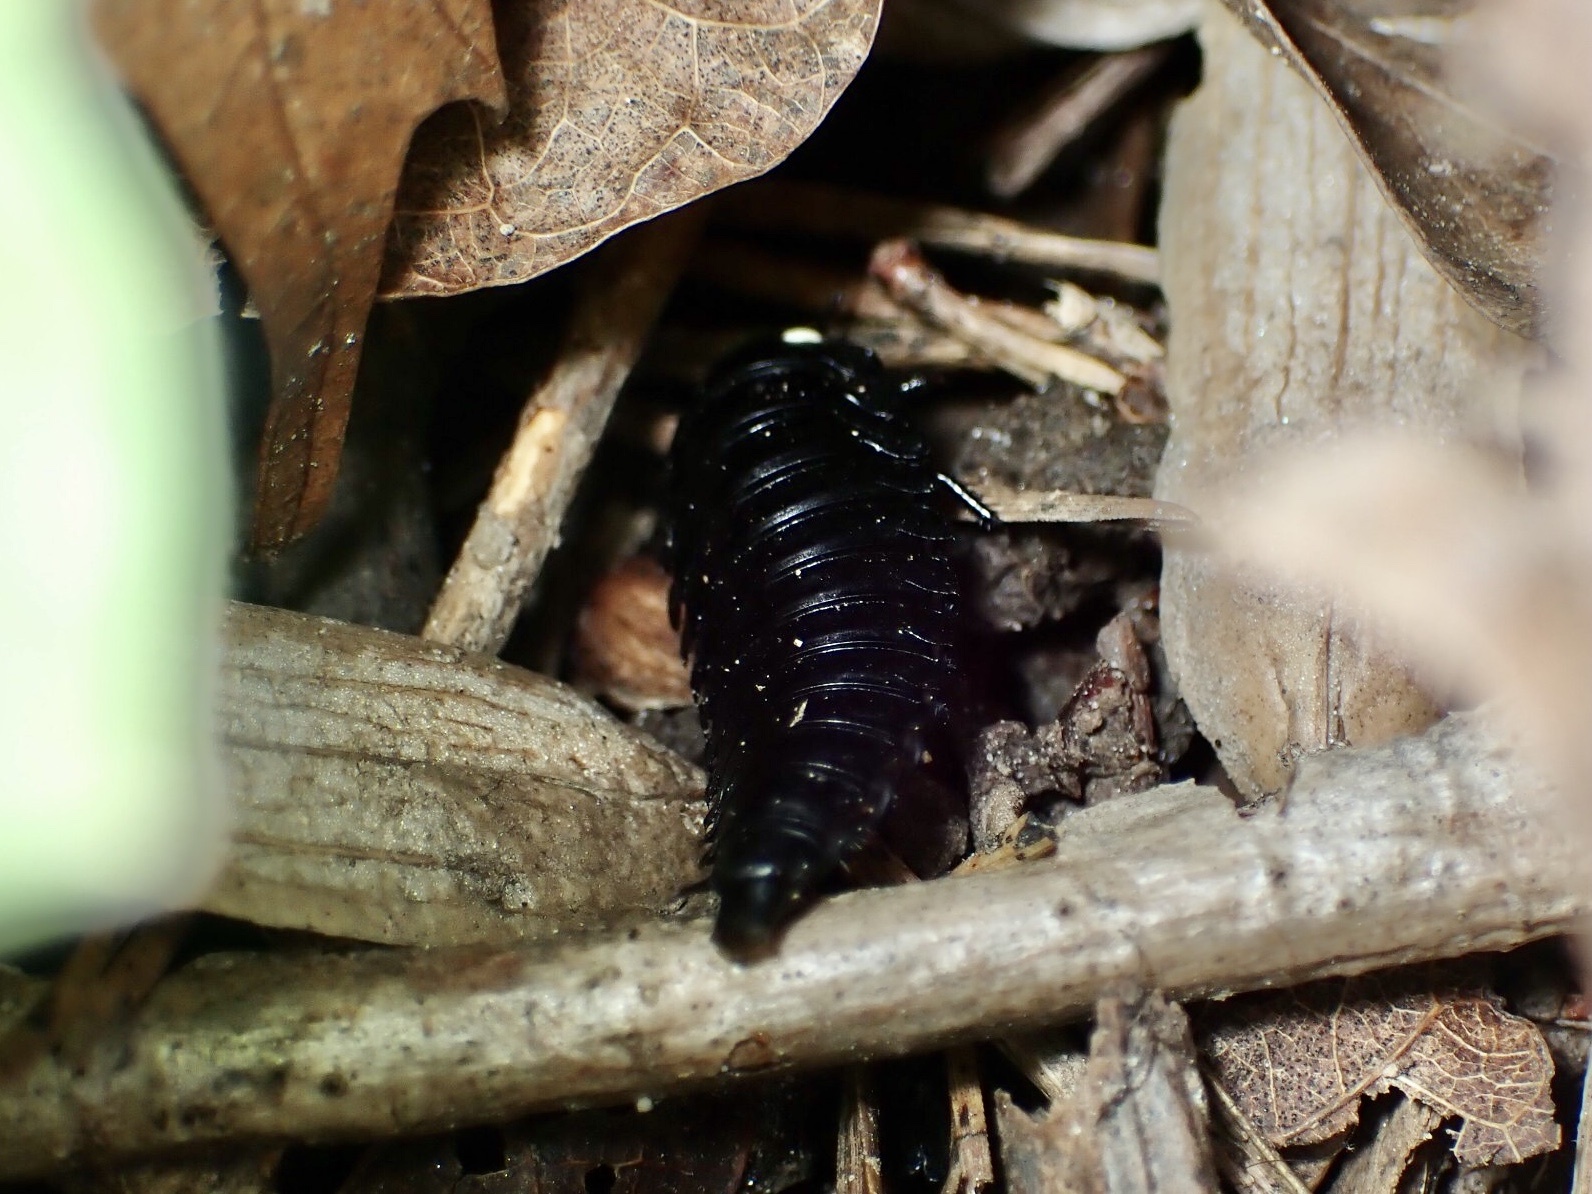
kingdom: Animalia
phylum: Arthropoda
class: Insecta
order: Coleoptera
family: Staphylinidae
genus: Necrophila
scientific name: Necrophila americana
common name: American carrion beetle
